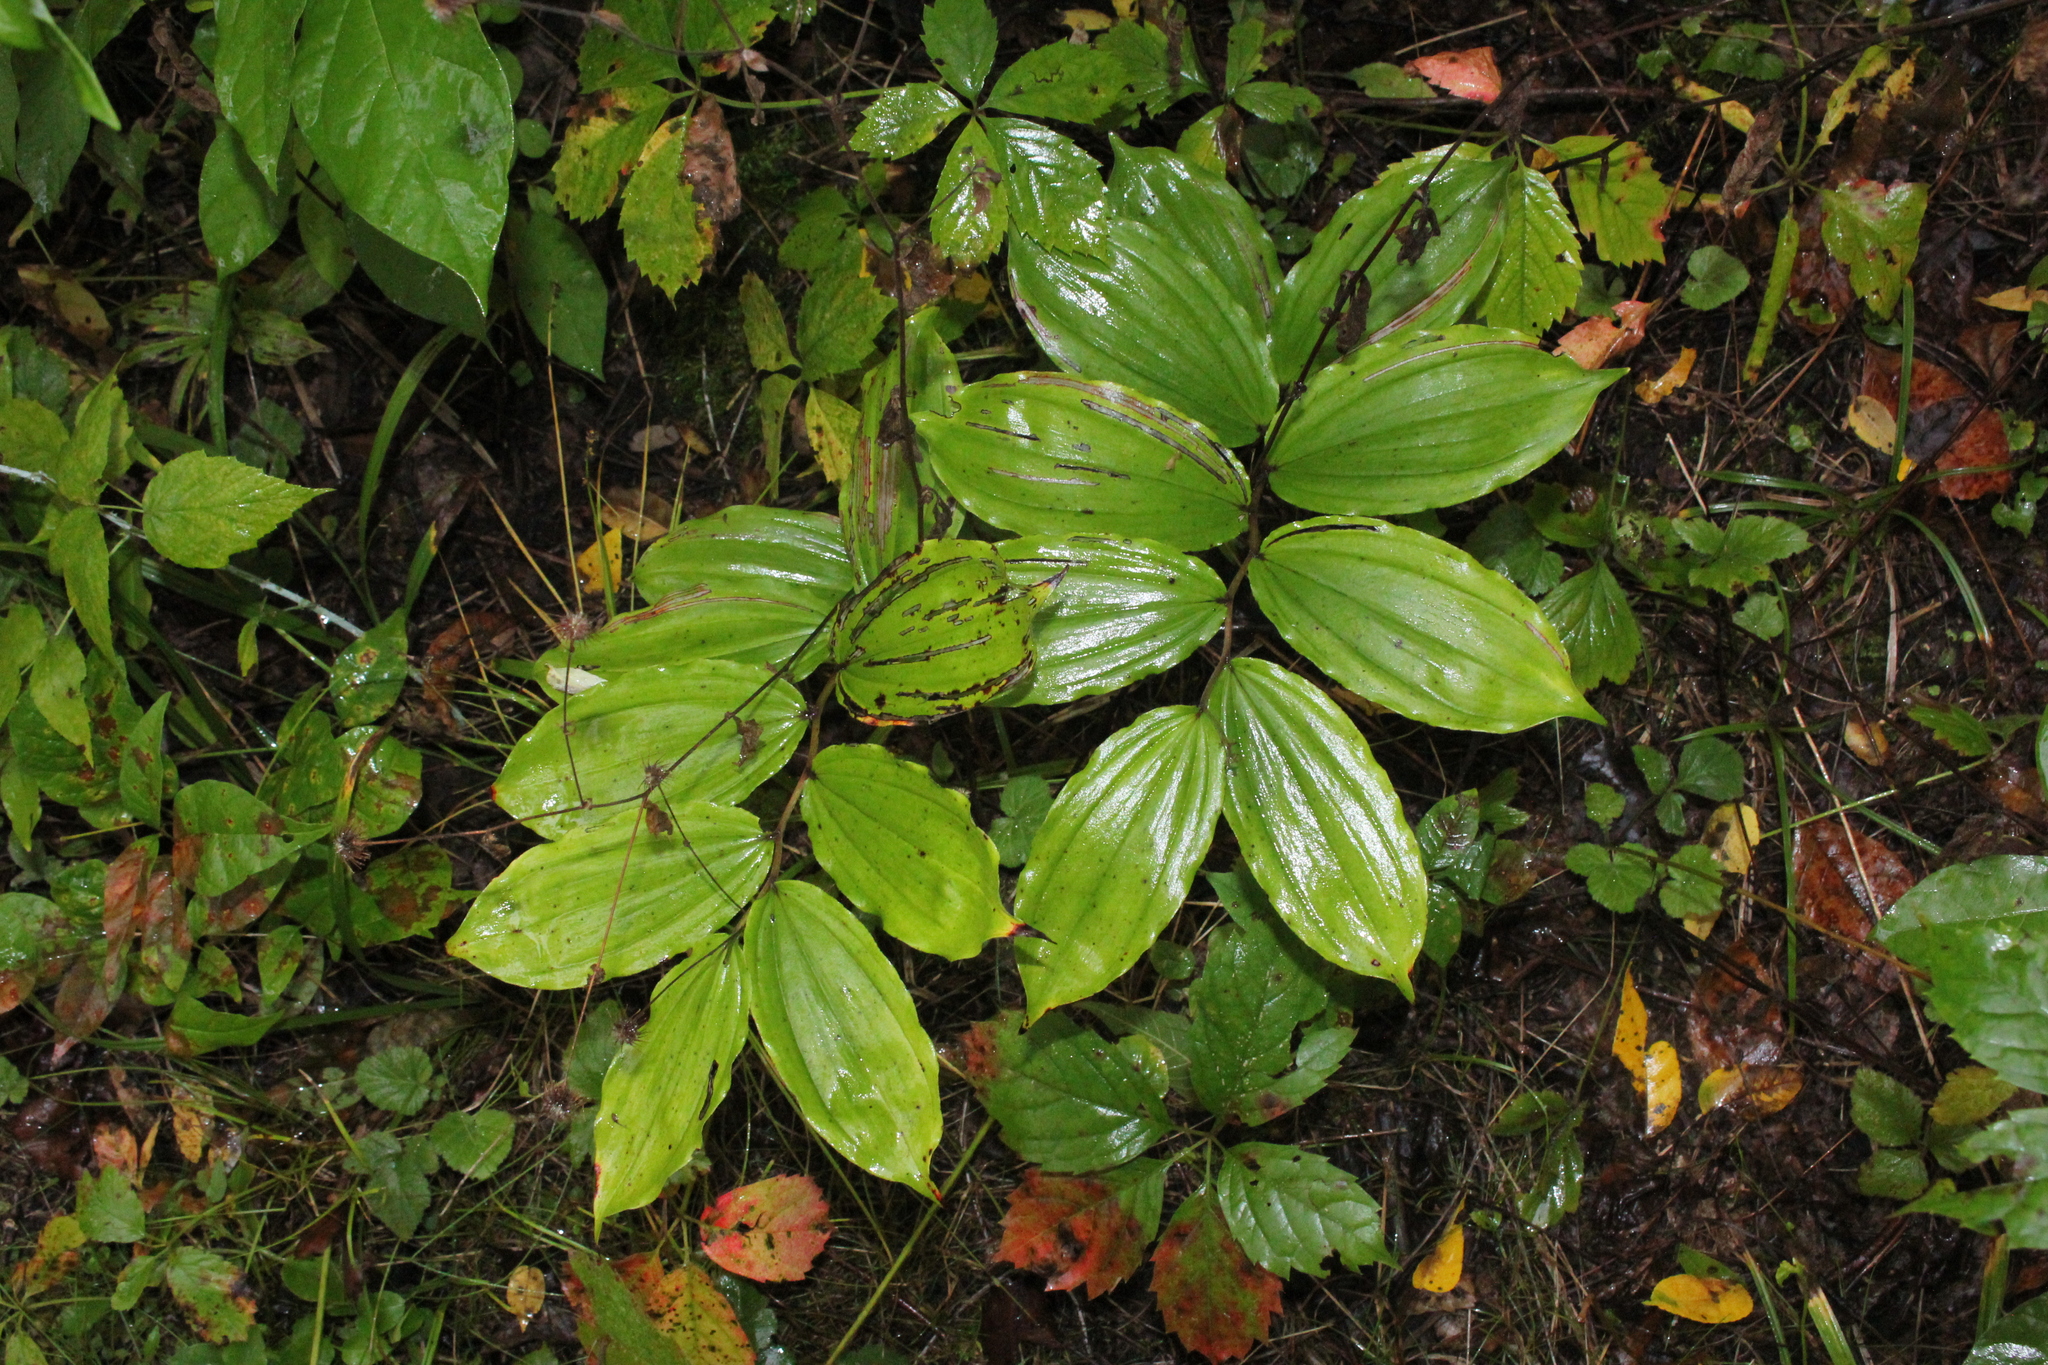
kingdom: Plantae
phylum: Tracheophyta
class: Liliopsida
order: Asparagales
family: Asparagaceae
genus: Maianthemum
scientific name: Maianthemum racemosum
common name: False spikenard
